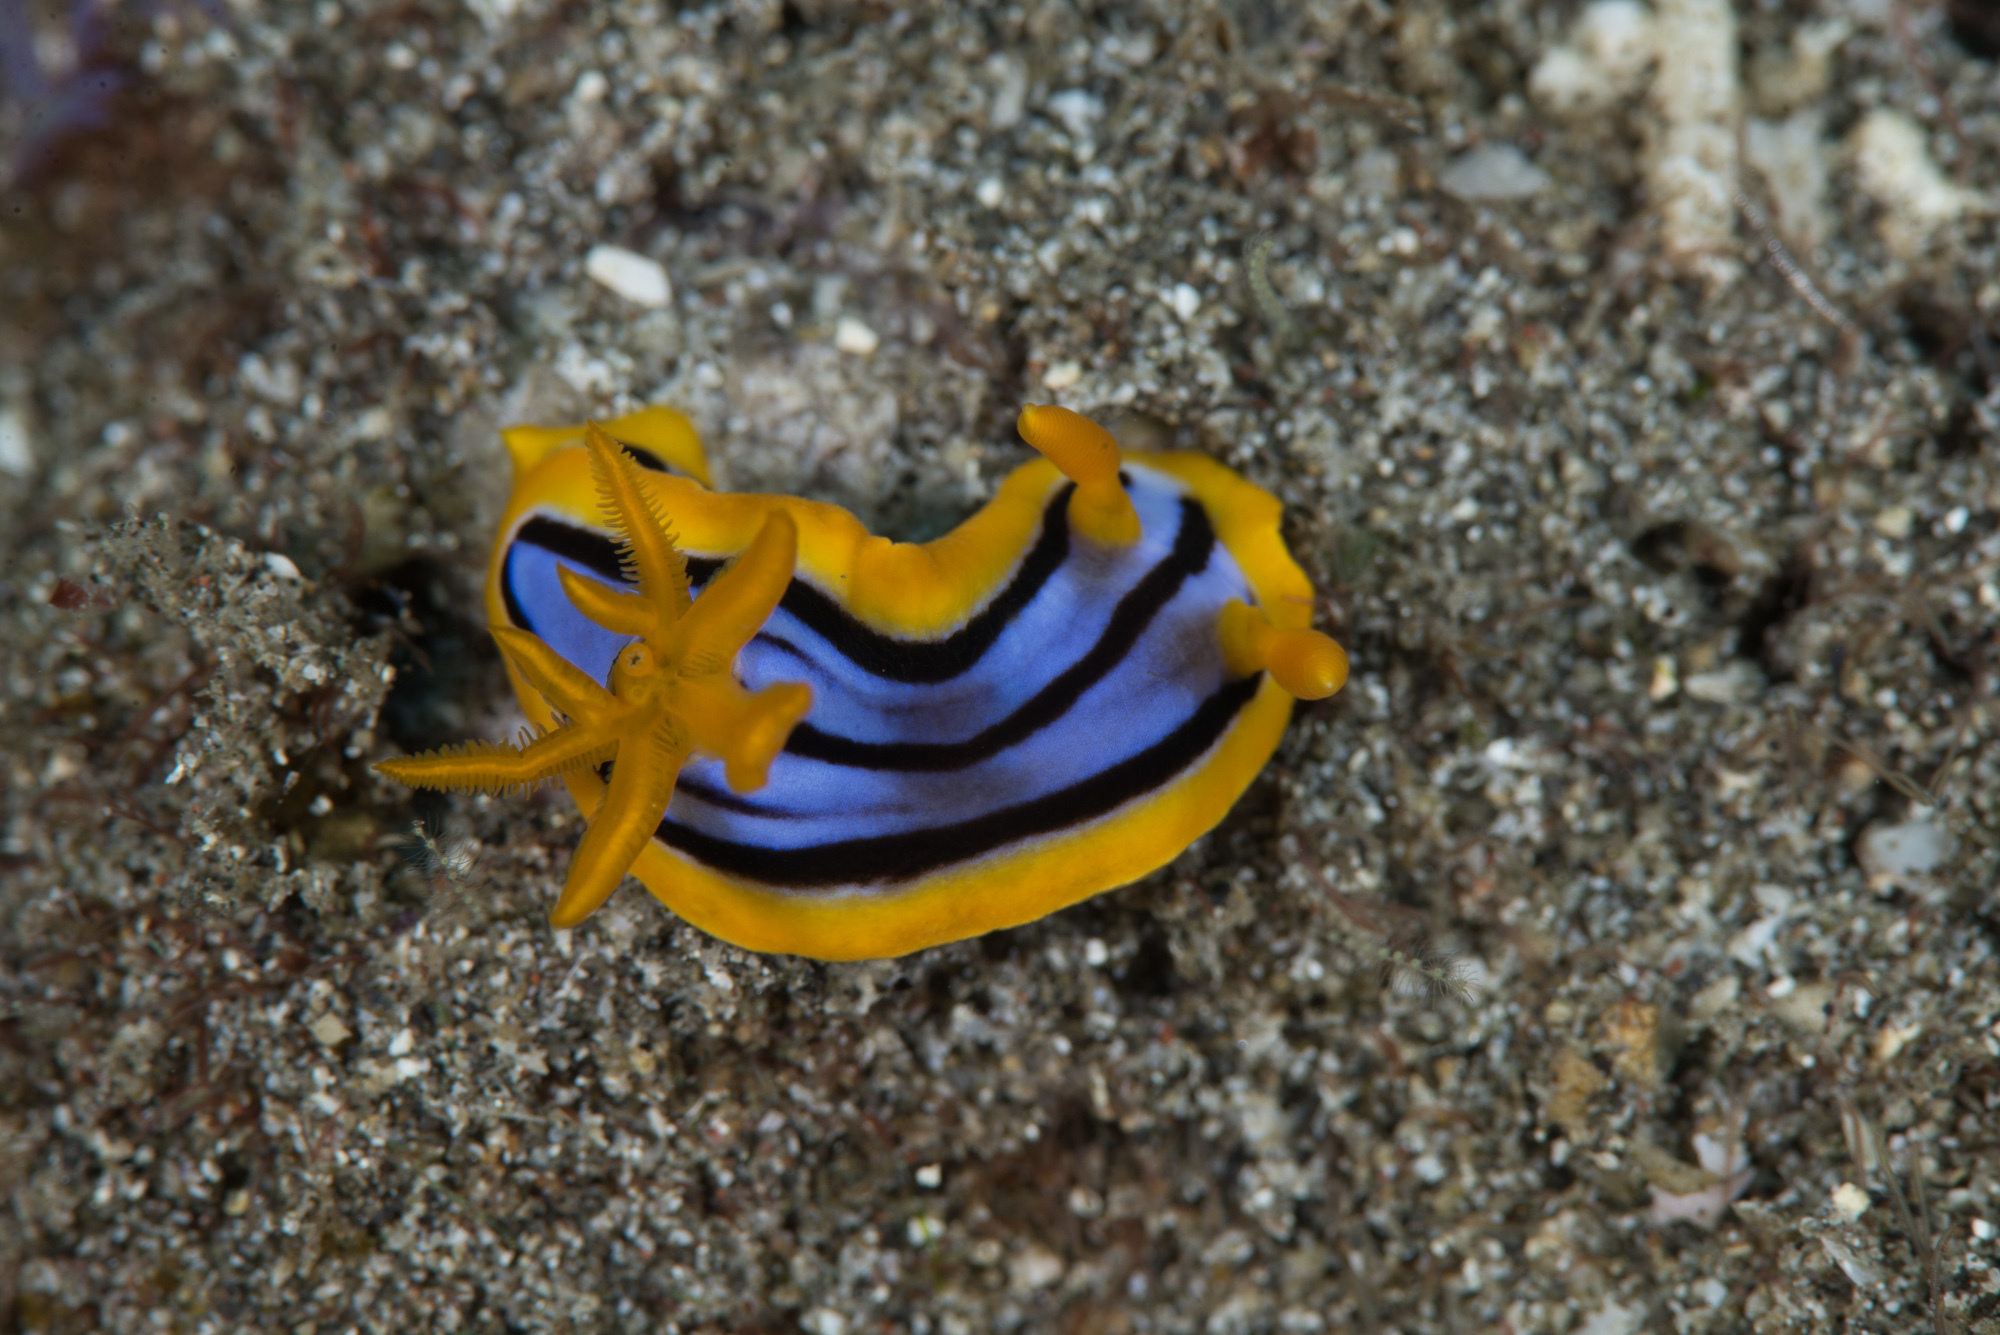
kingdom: Animalia
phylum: Mollusca
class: Gastropoda
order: Nudibranchia
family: Chromodorididae
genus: Chromodoris
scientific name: Chromodoris elisabethina
